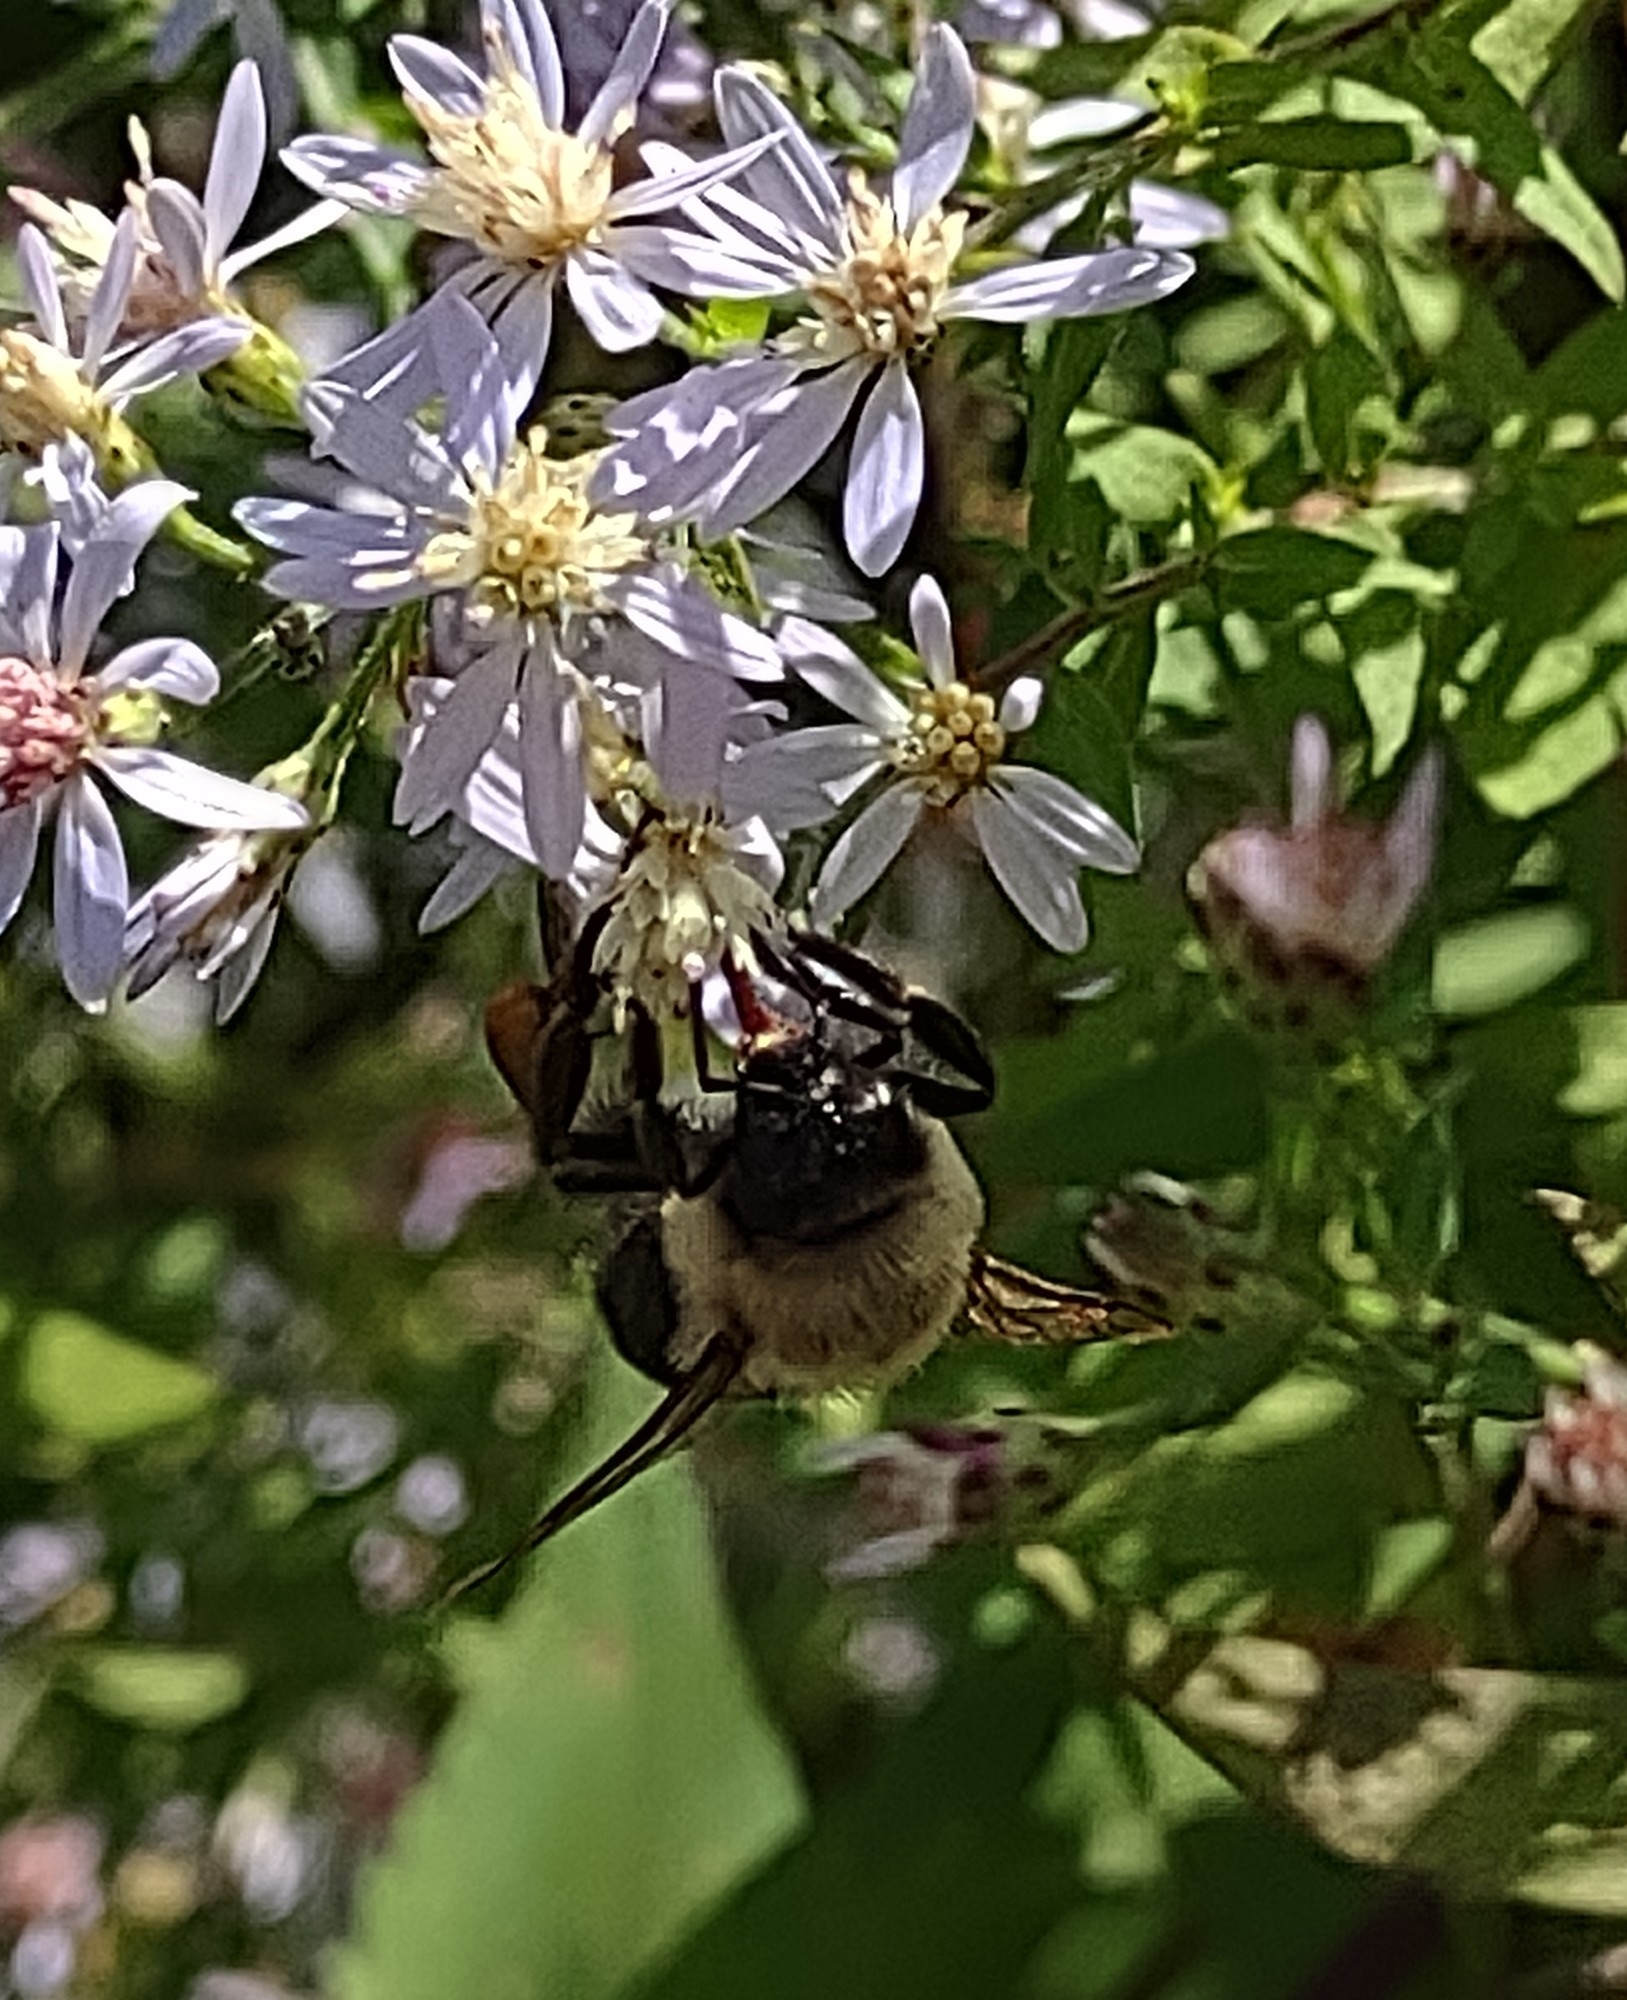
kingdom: Animalia
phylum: Arthropoda
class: Insecta
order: Hymenoptera
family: Apidae
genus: Bombus
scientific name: Bombus impatiens
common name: Common eastern bumble bee
